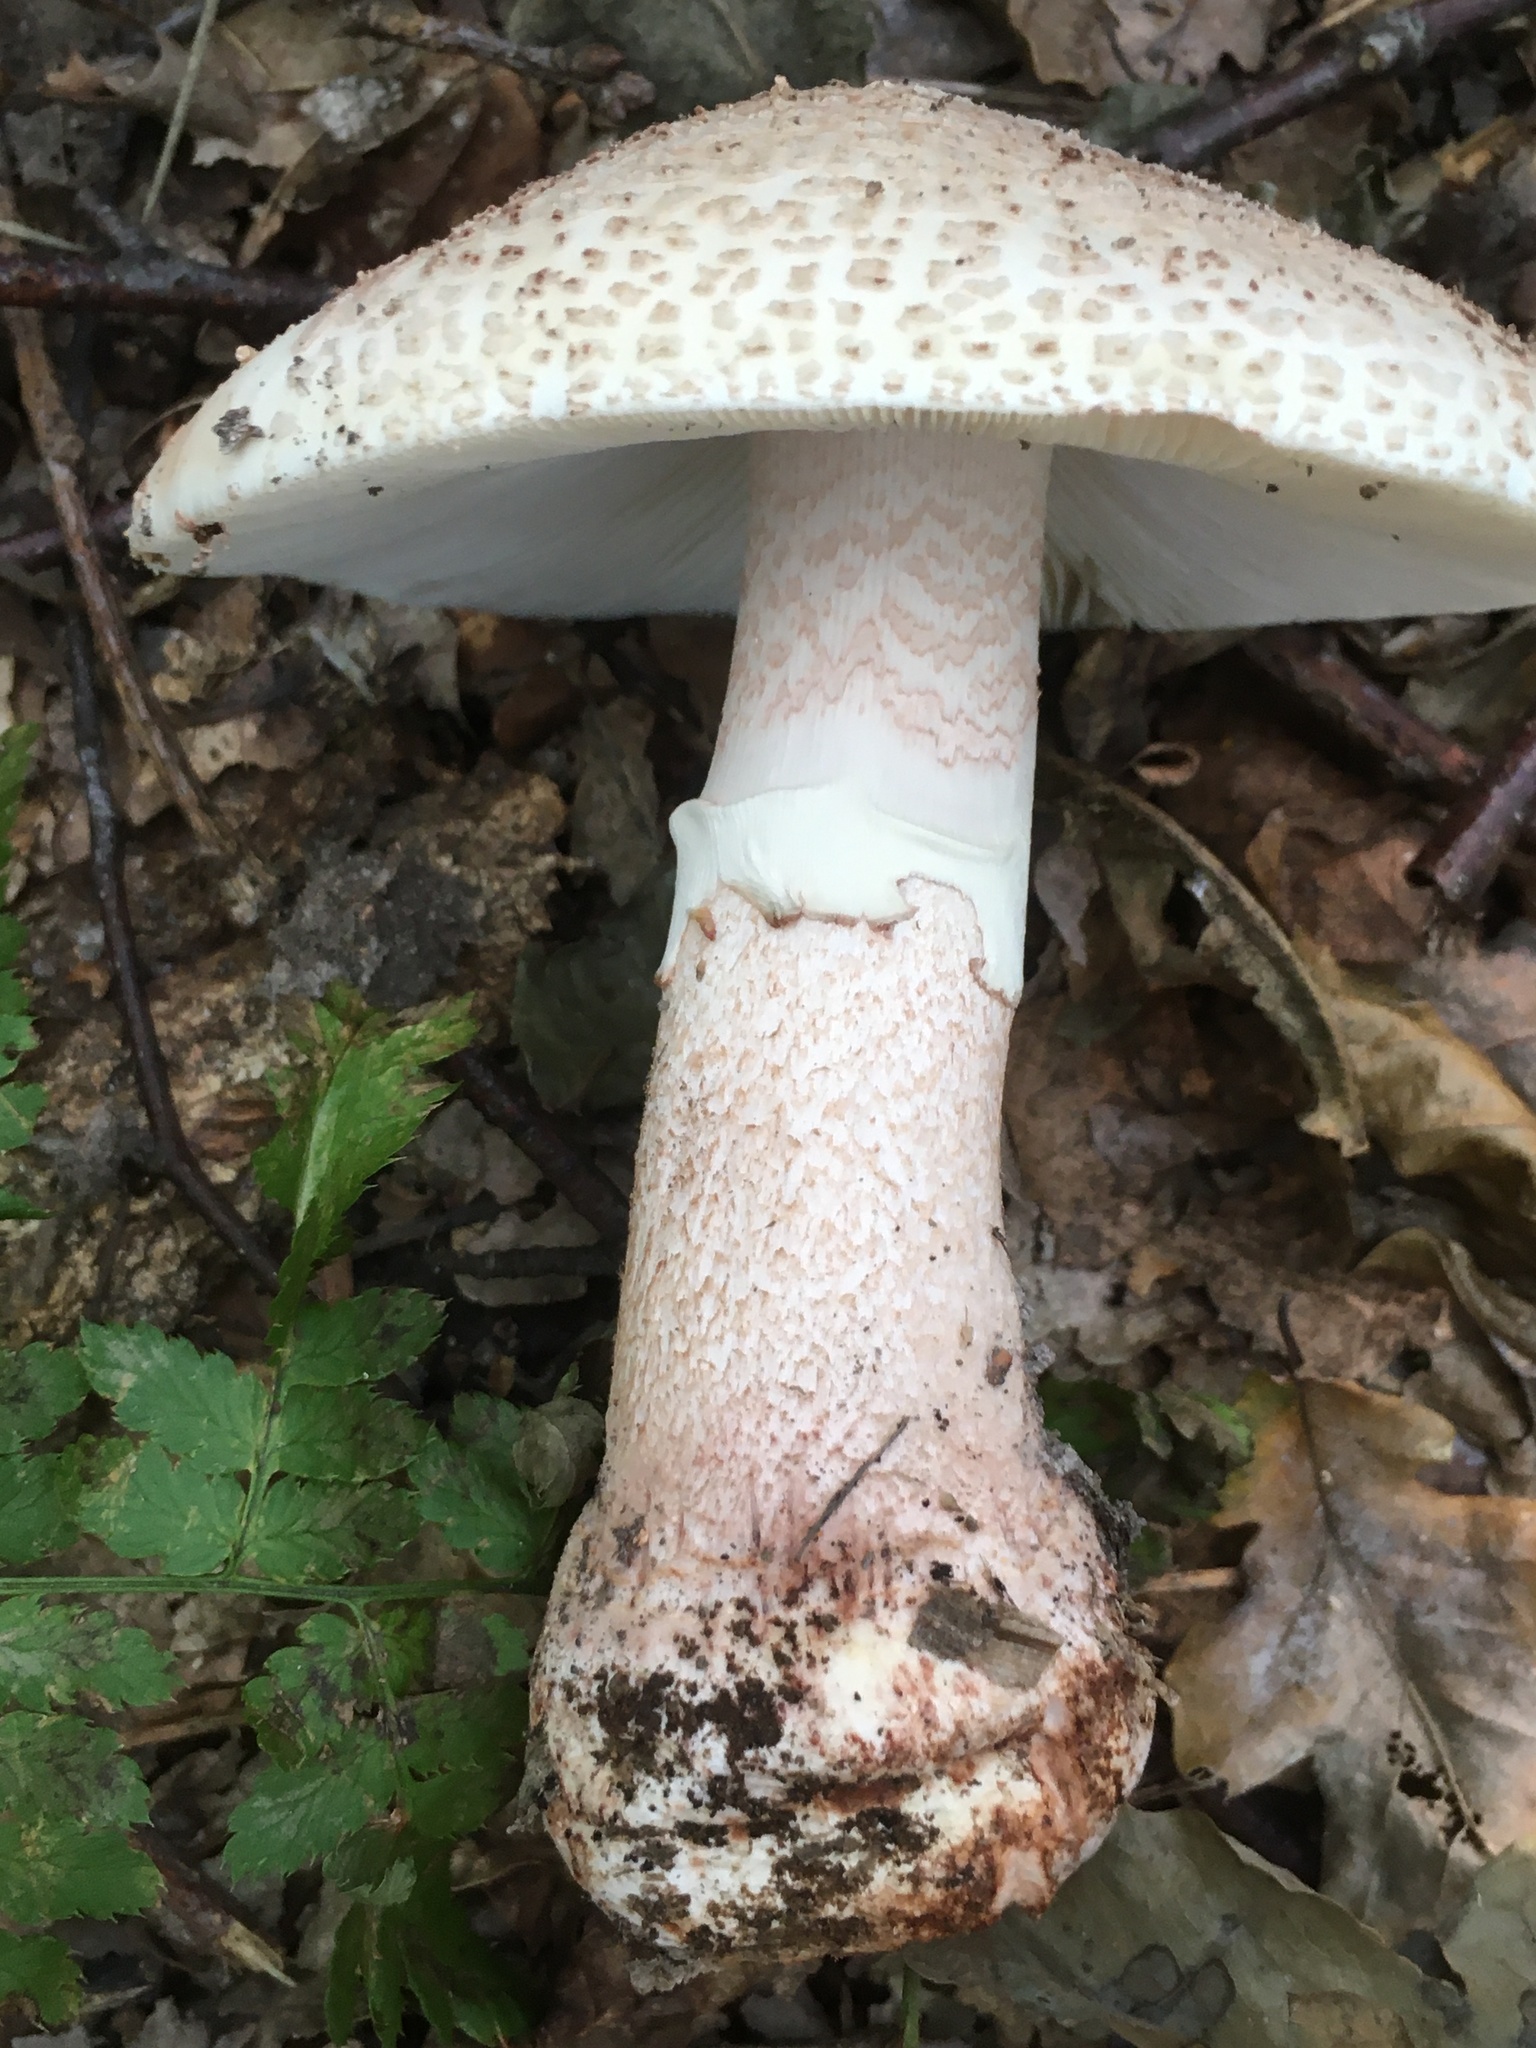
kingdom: Fungi
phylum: Basidiomycota
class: Agaricomycetes
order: Agaricales
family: Amanitaceae
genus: Amanita
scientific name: Amanita rubescens
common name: Blusher
